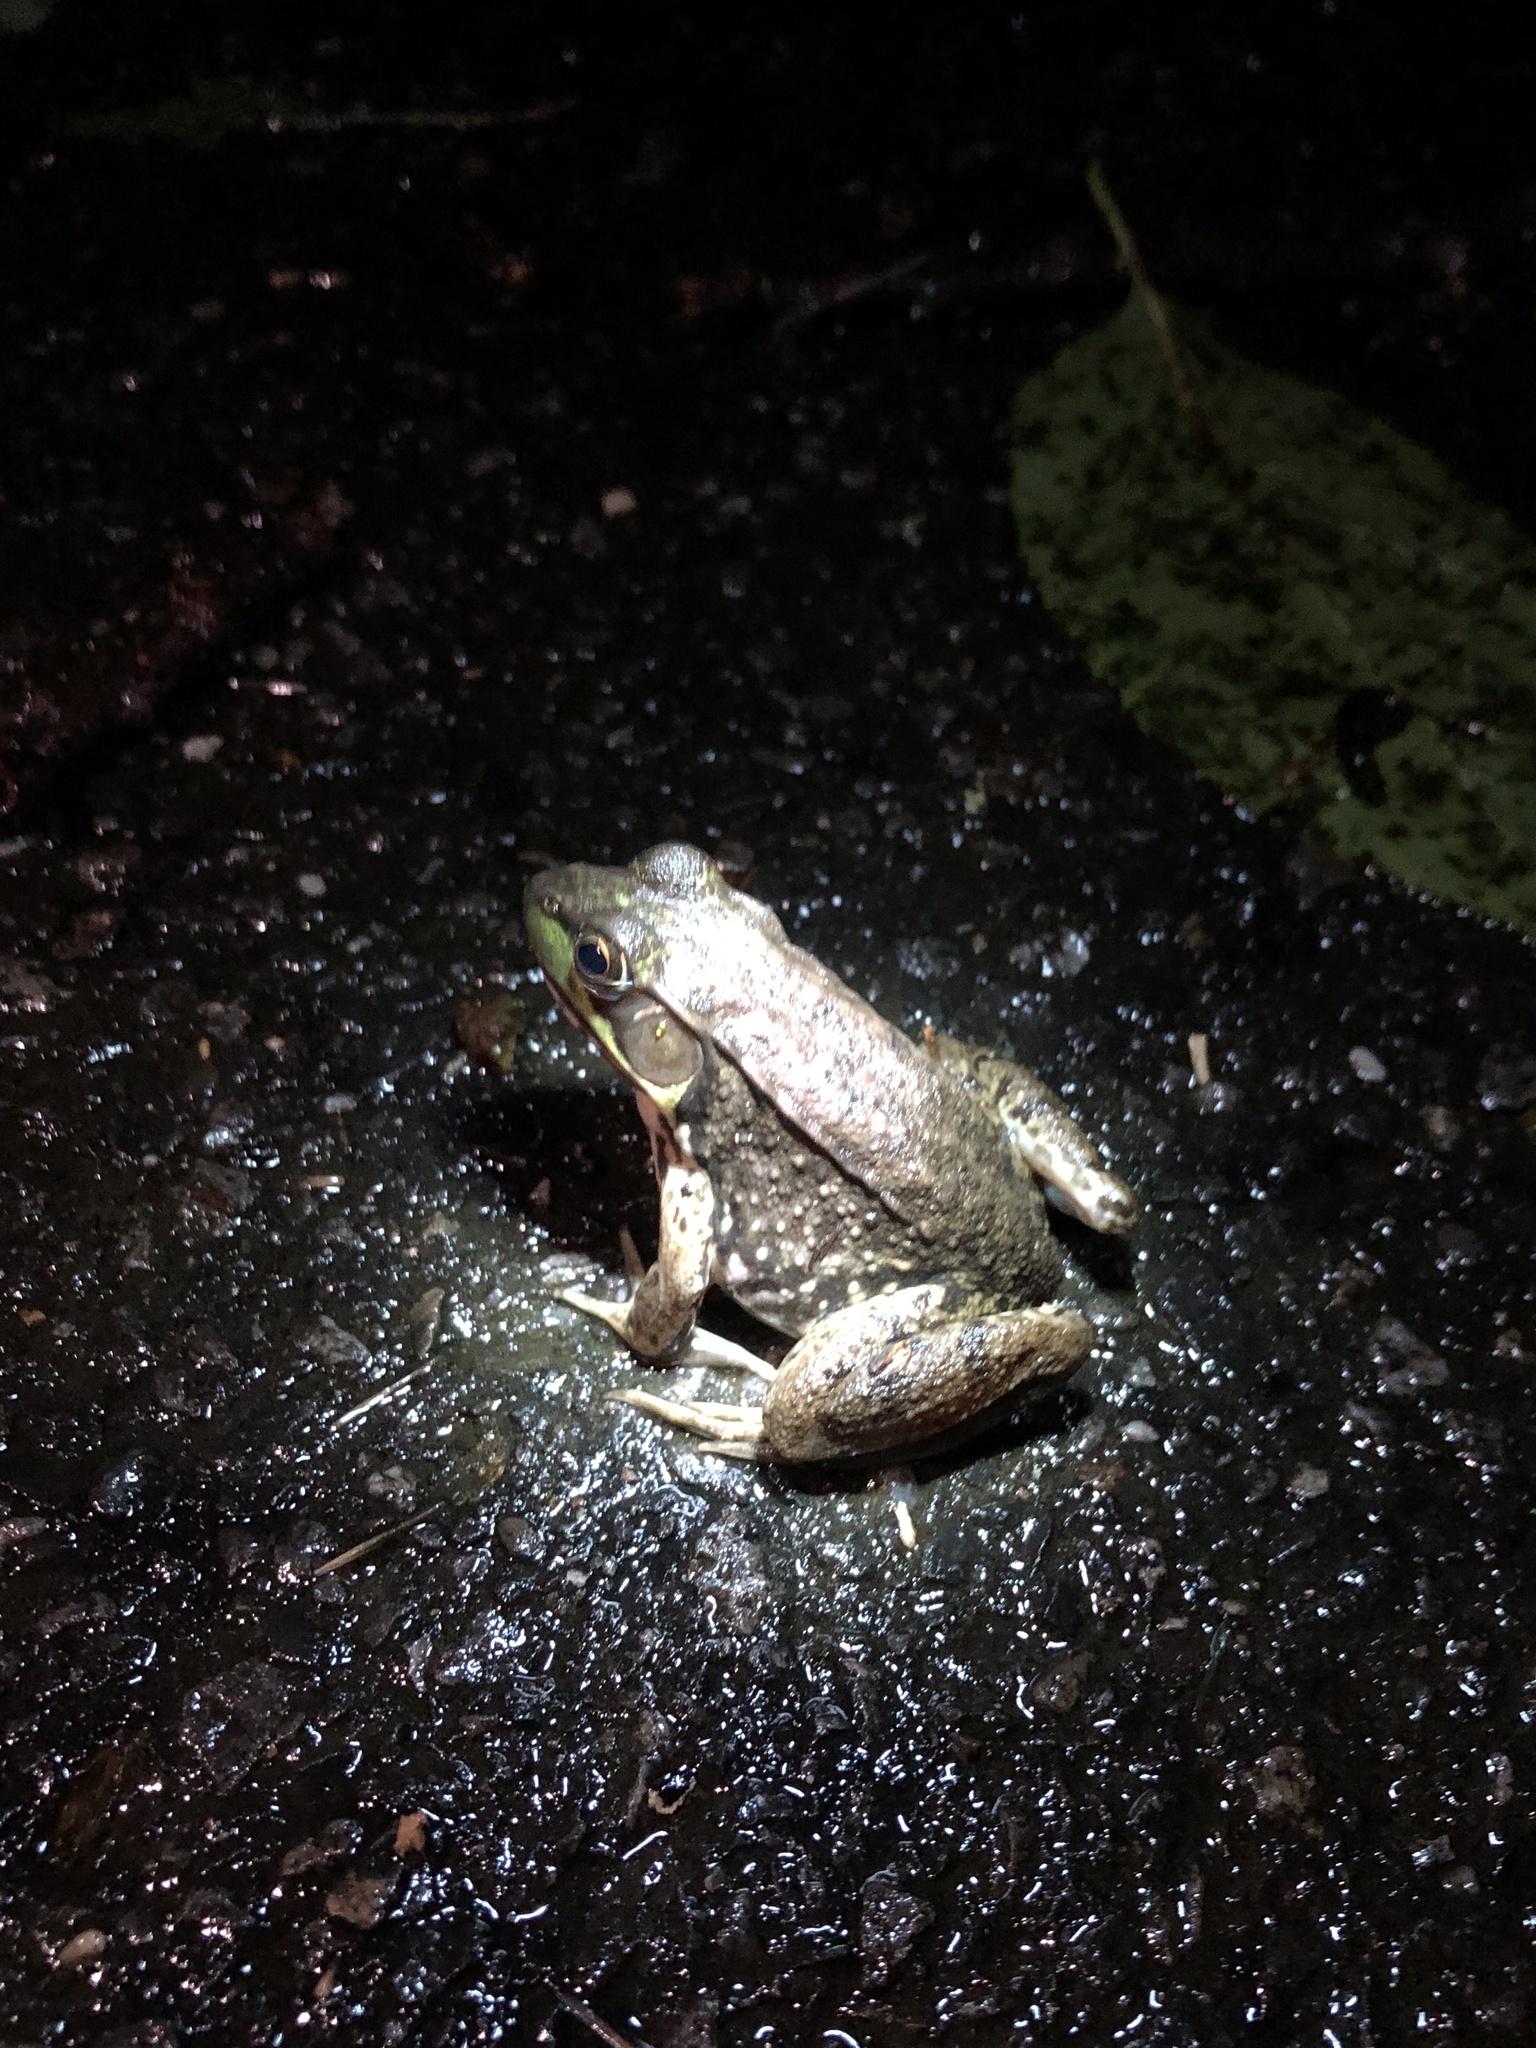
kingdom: Animalia
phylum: Chordata
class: Amphibia
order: Anura
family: Ranidae
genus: Lithobates
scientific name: Lithobates clamitans
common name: Green frog
